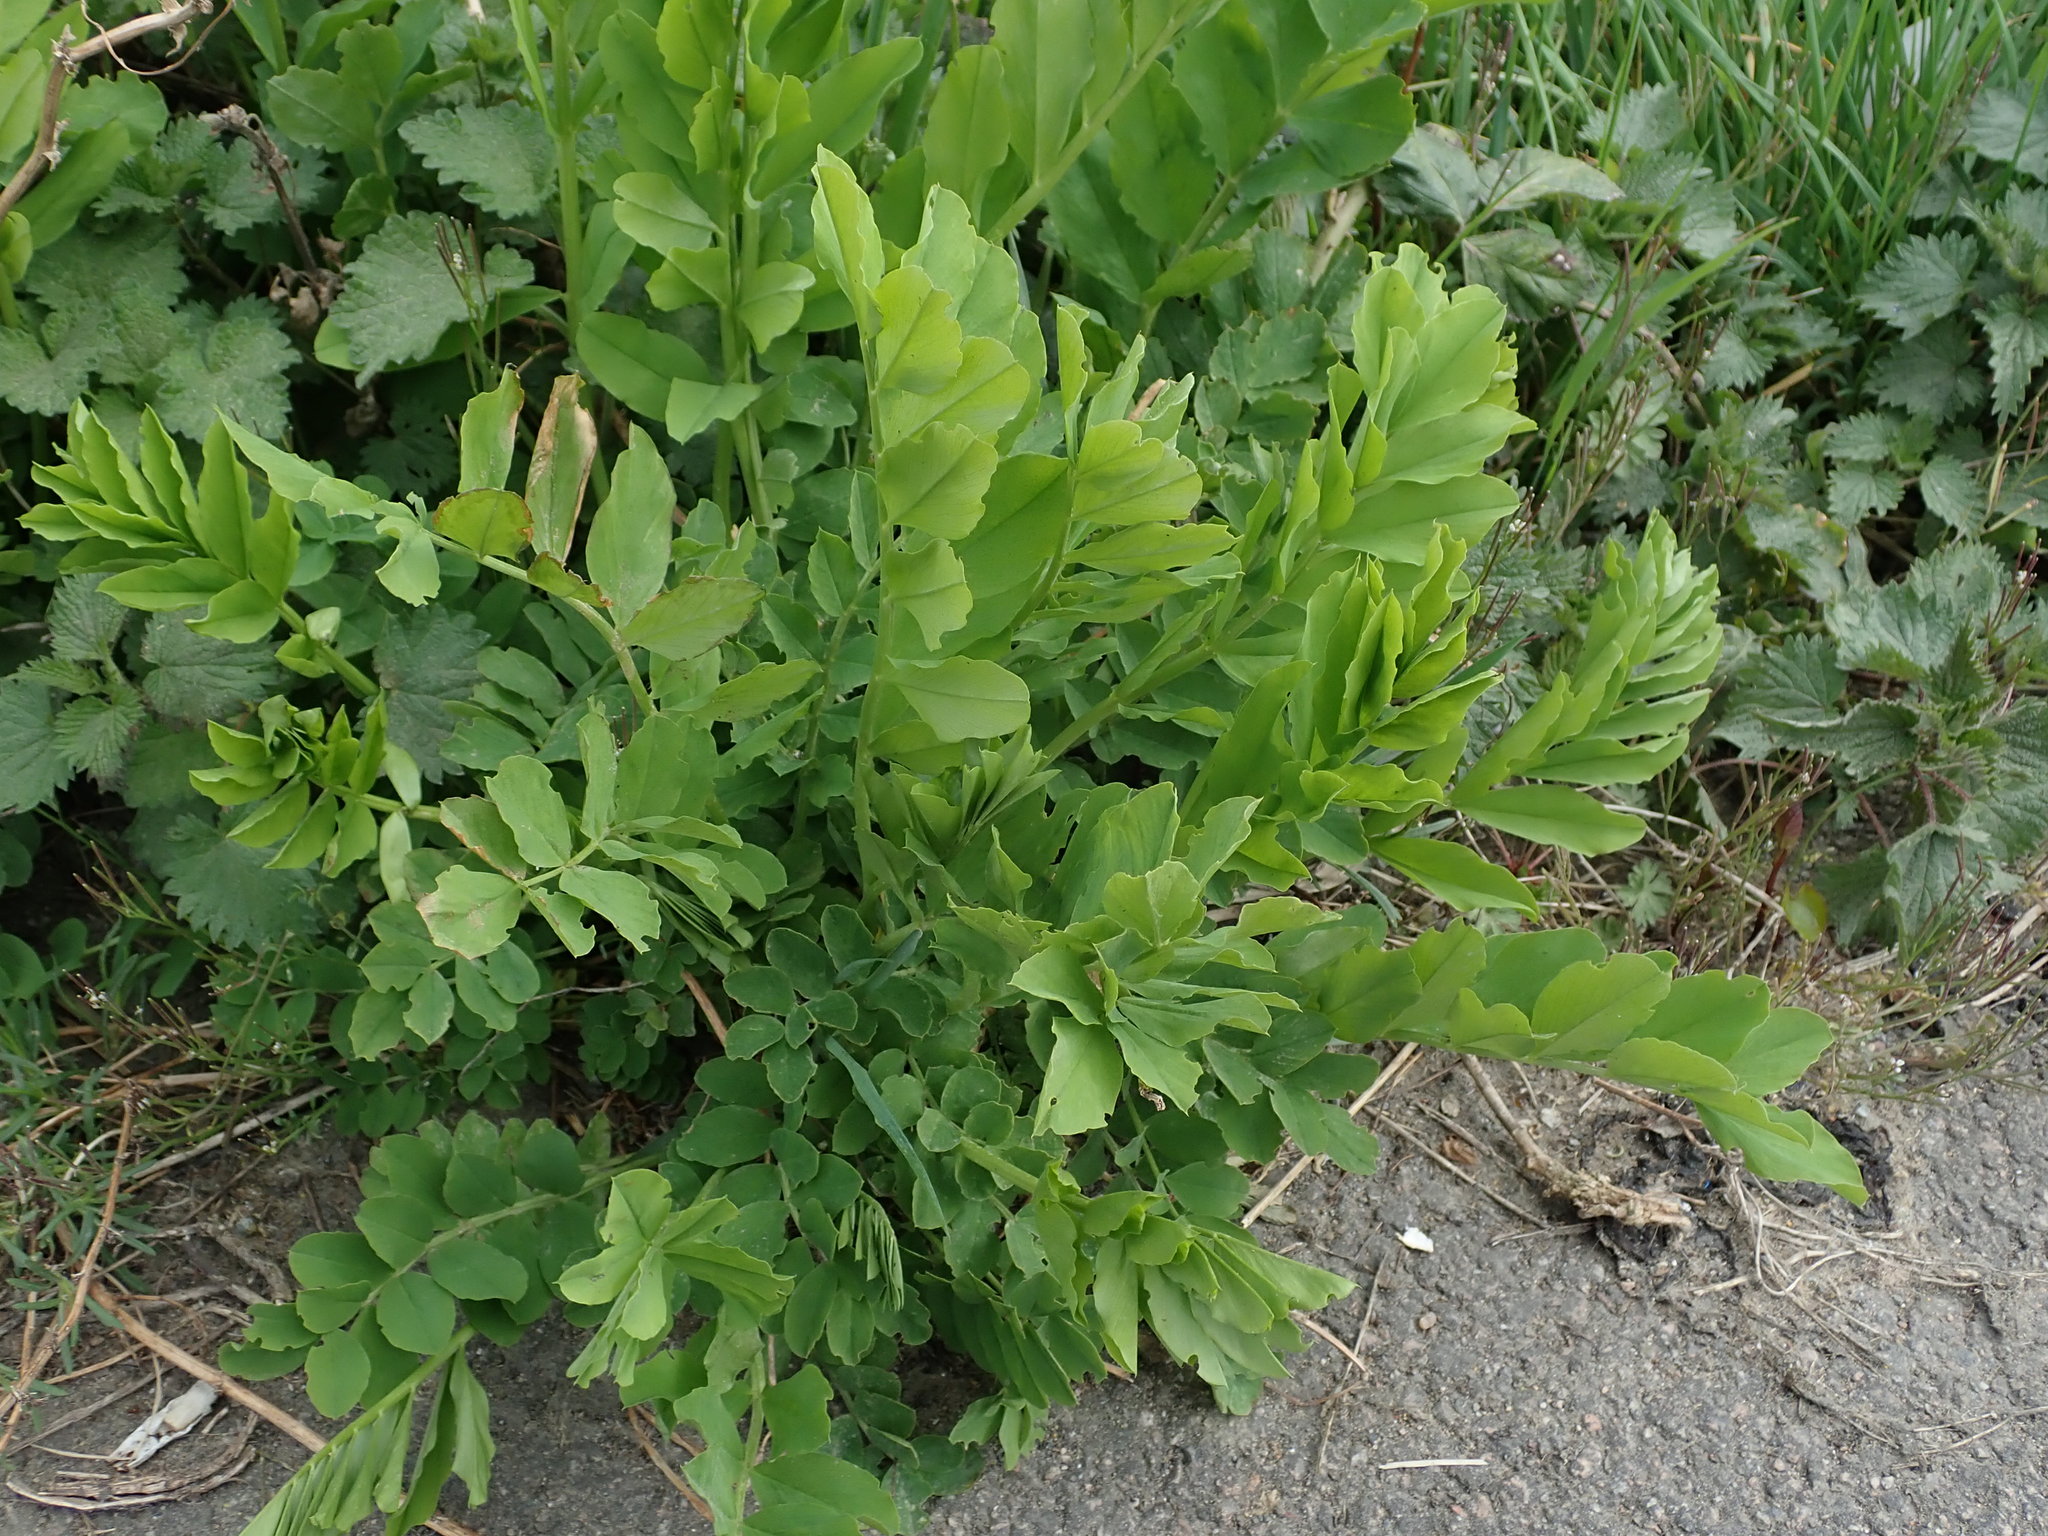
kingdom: Plantae
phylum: Tracheophyta
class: Magnoliopsida
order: Fabales
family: Fabaceae
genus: Galega
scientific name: Galega officinalis
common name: Goat's-rue
